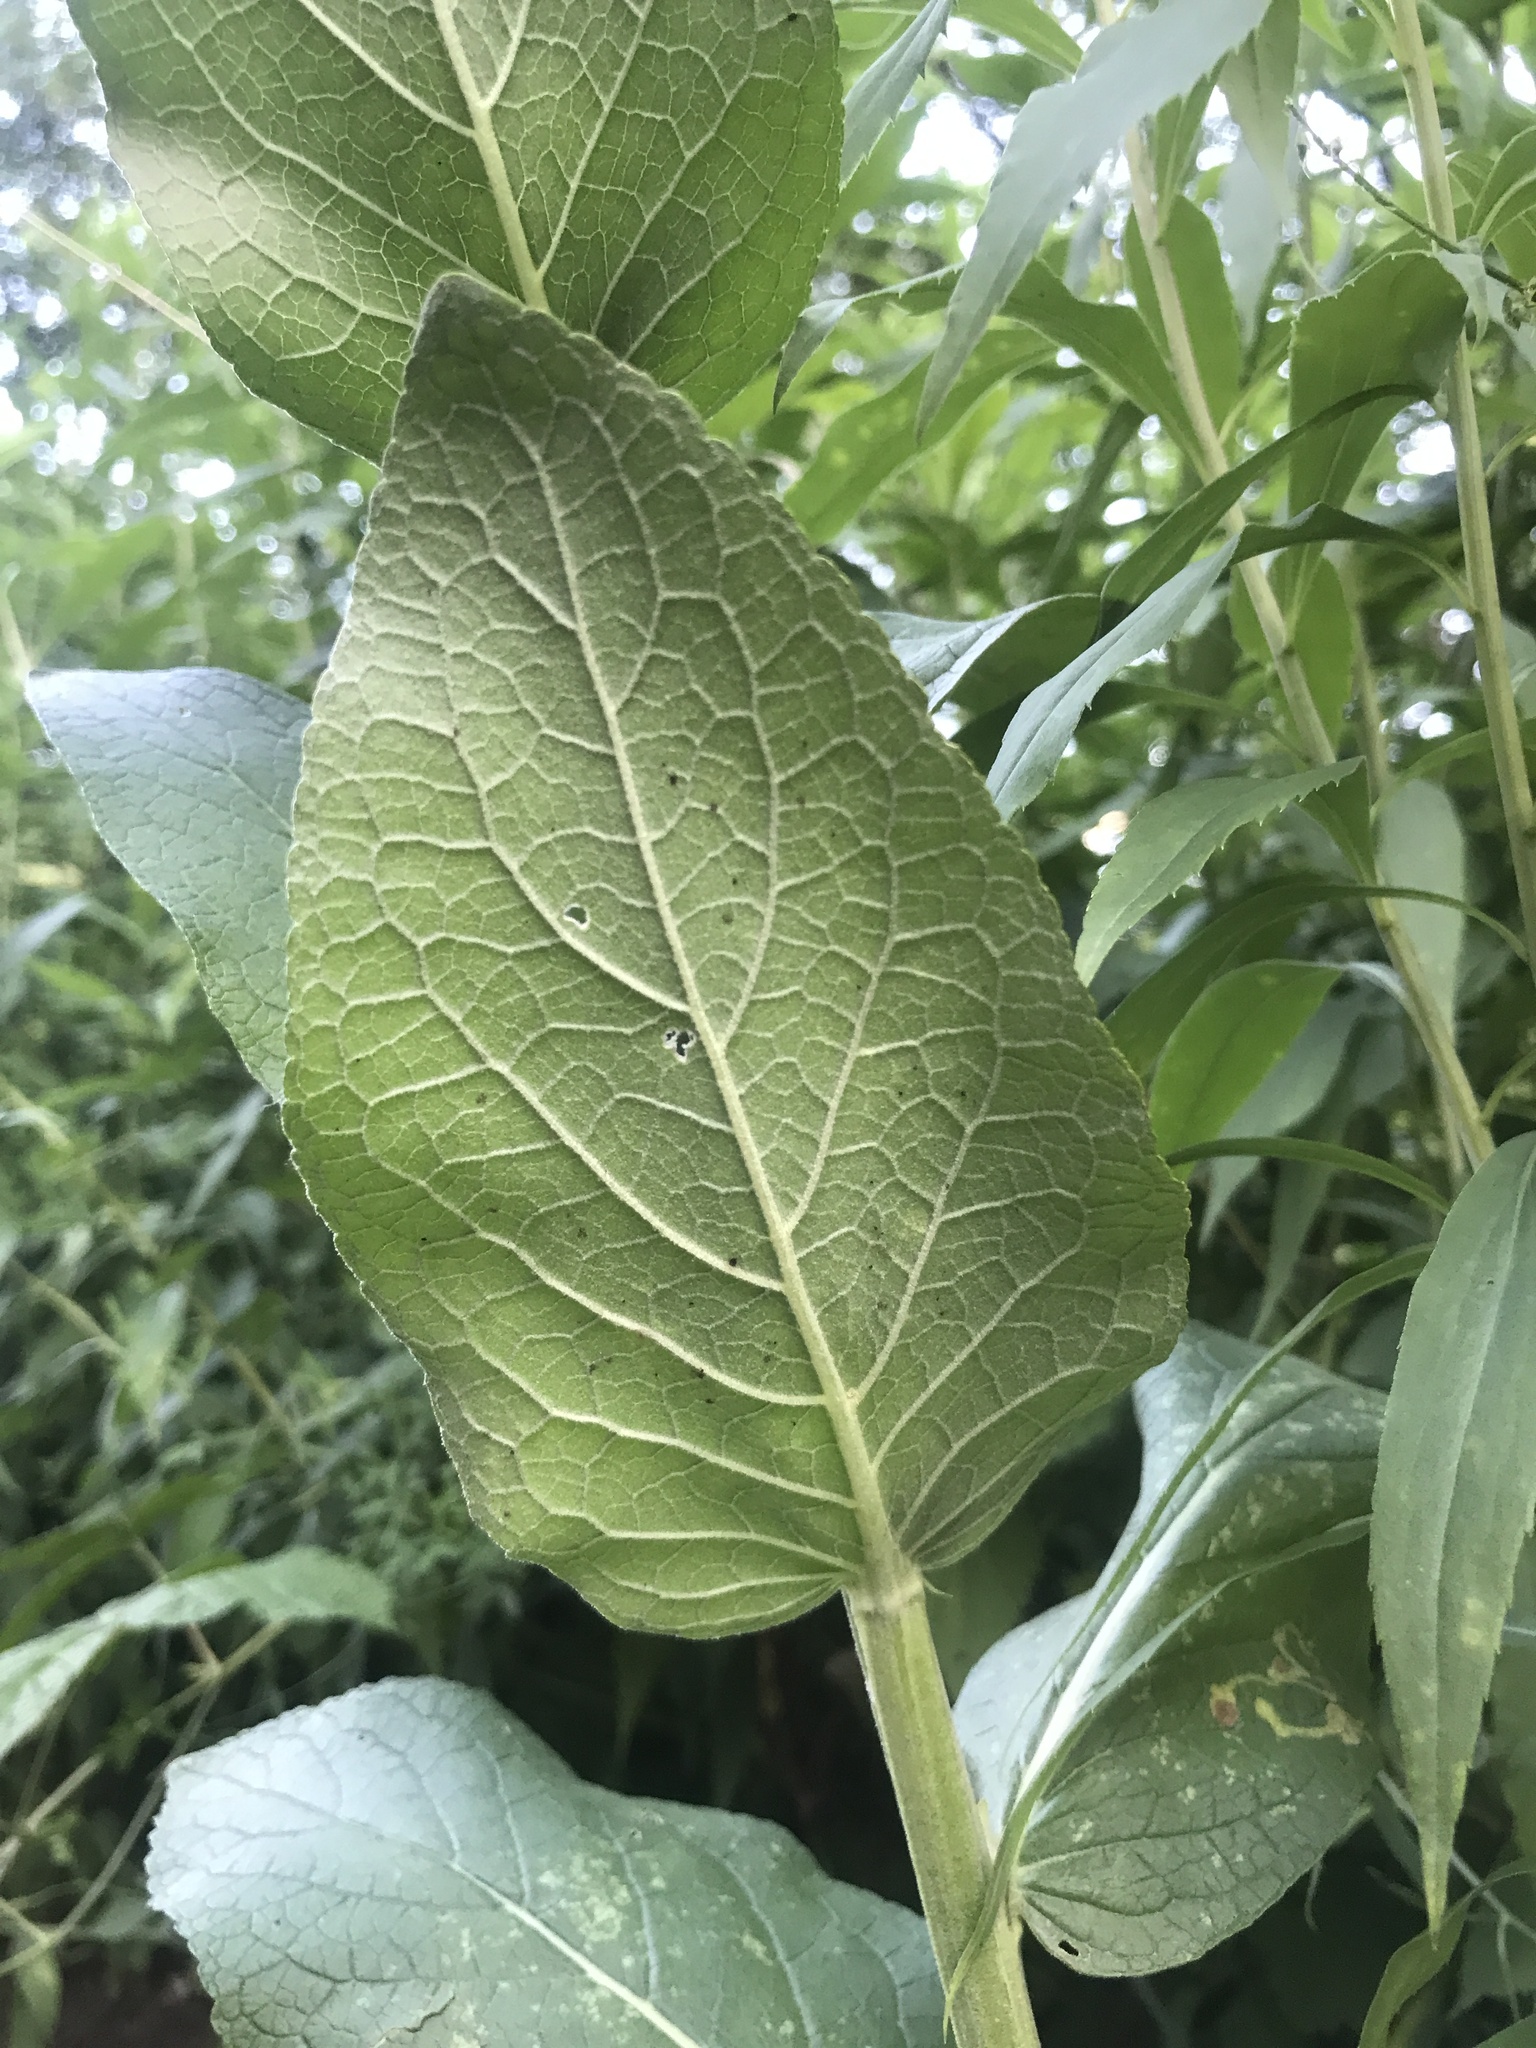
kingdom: Plantae
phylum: Tracheophyta
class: Magnoliopsida
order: Lamiales
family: Scrophulariaceae
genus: Verbascum
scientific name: Verbascum lychnitis
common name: White mullein
